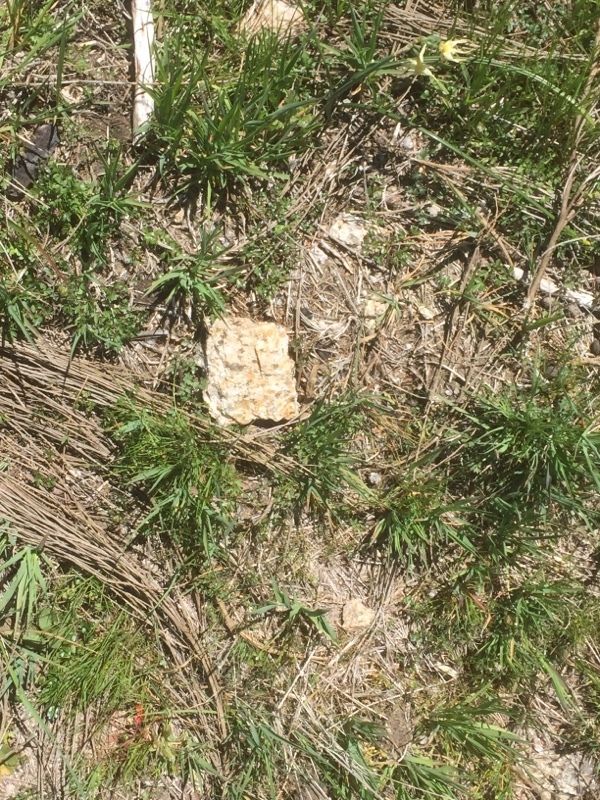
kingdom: Plantae
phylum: Tracheophyta
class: Liliopsida
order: Asparagales
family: Amaryllidaceae
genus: Narcissus
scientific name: Narcissus triandrus
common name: Angel's-tears
